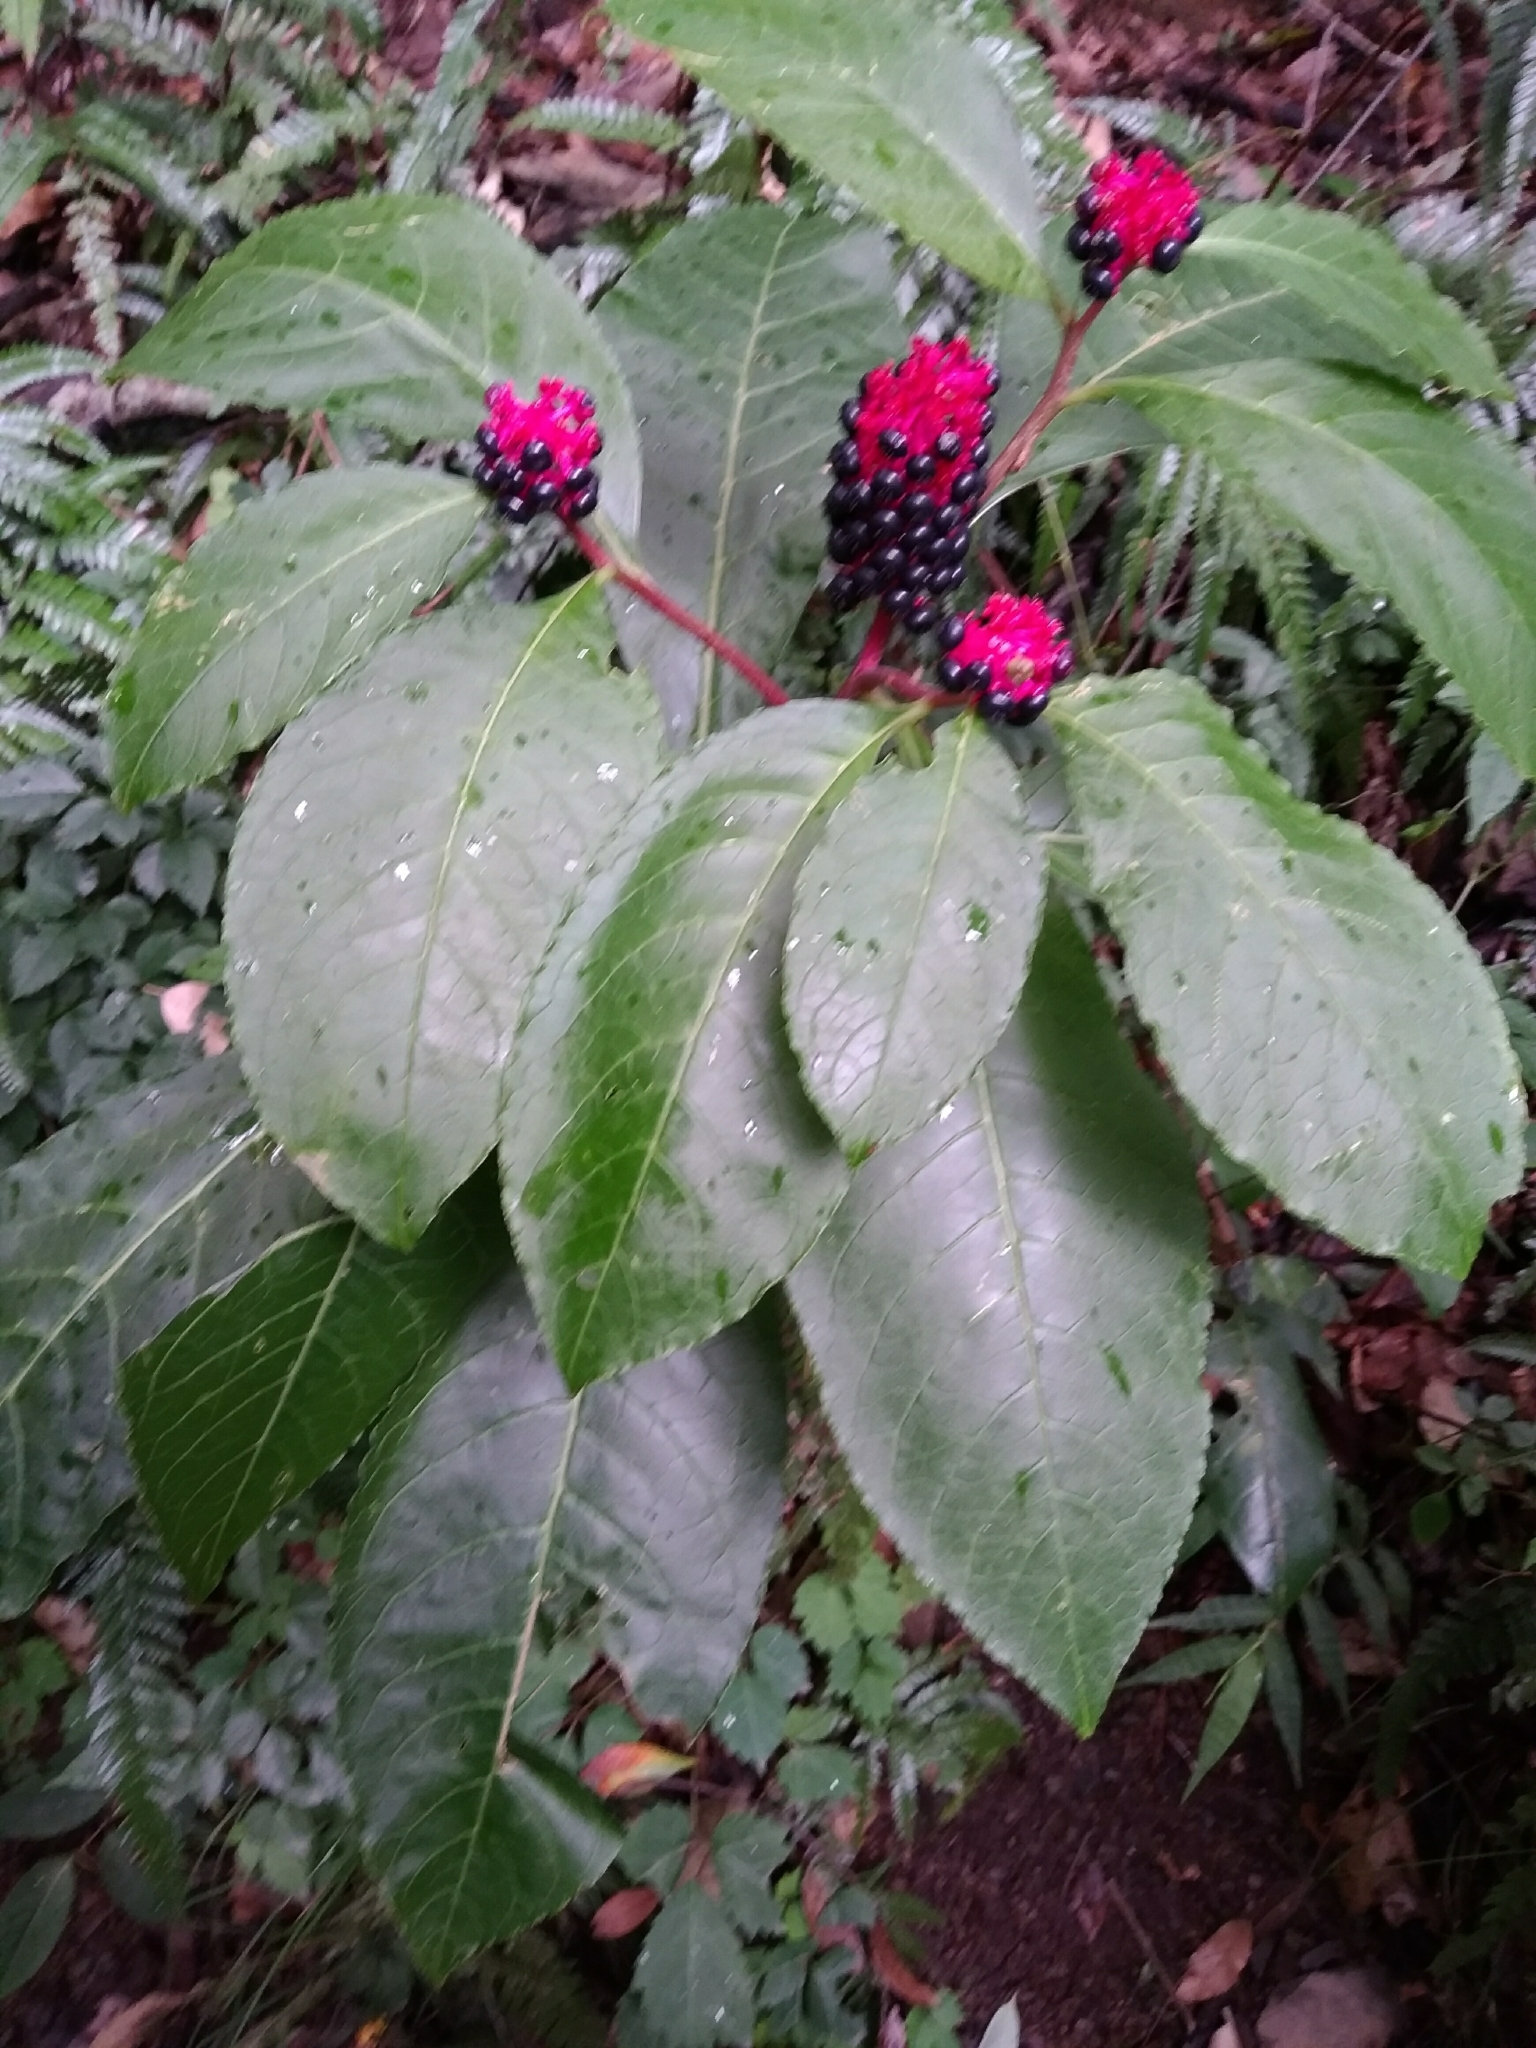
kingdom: Plantae
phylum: Tracheophyta
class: Magnoliopsida
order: Caryophyllales
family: Phytolaccaceae
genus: Phytolacca
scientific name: Phytolacca japonica
